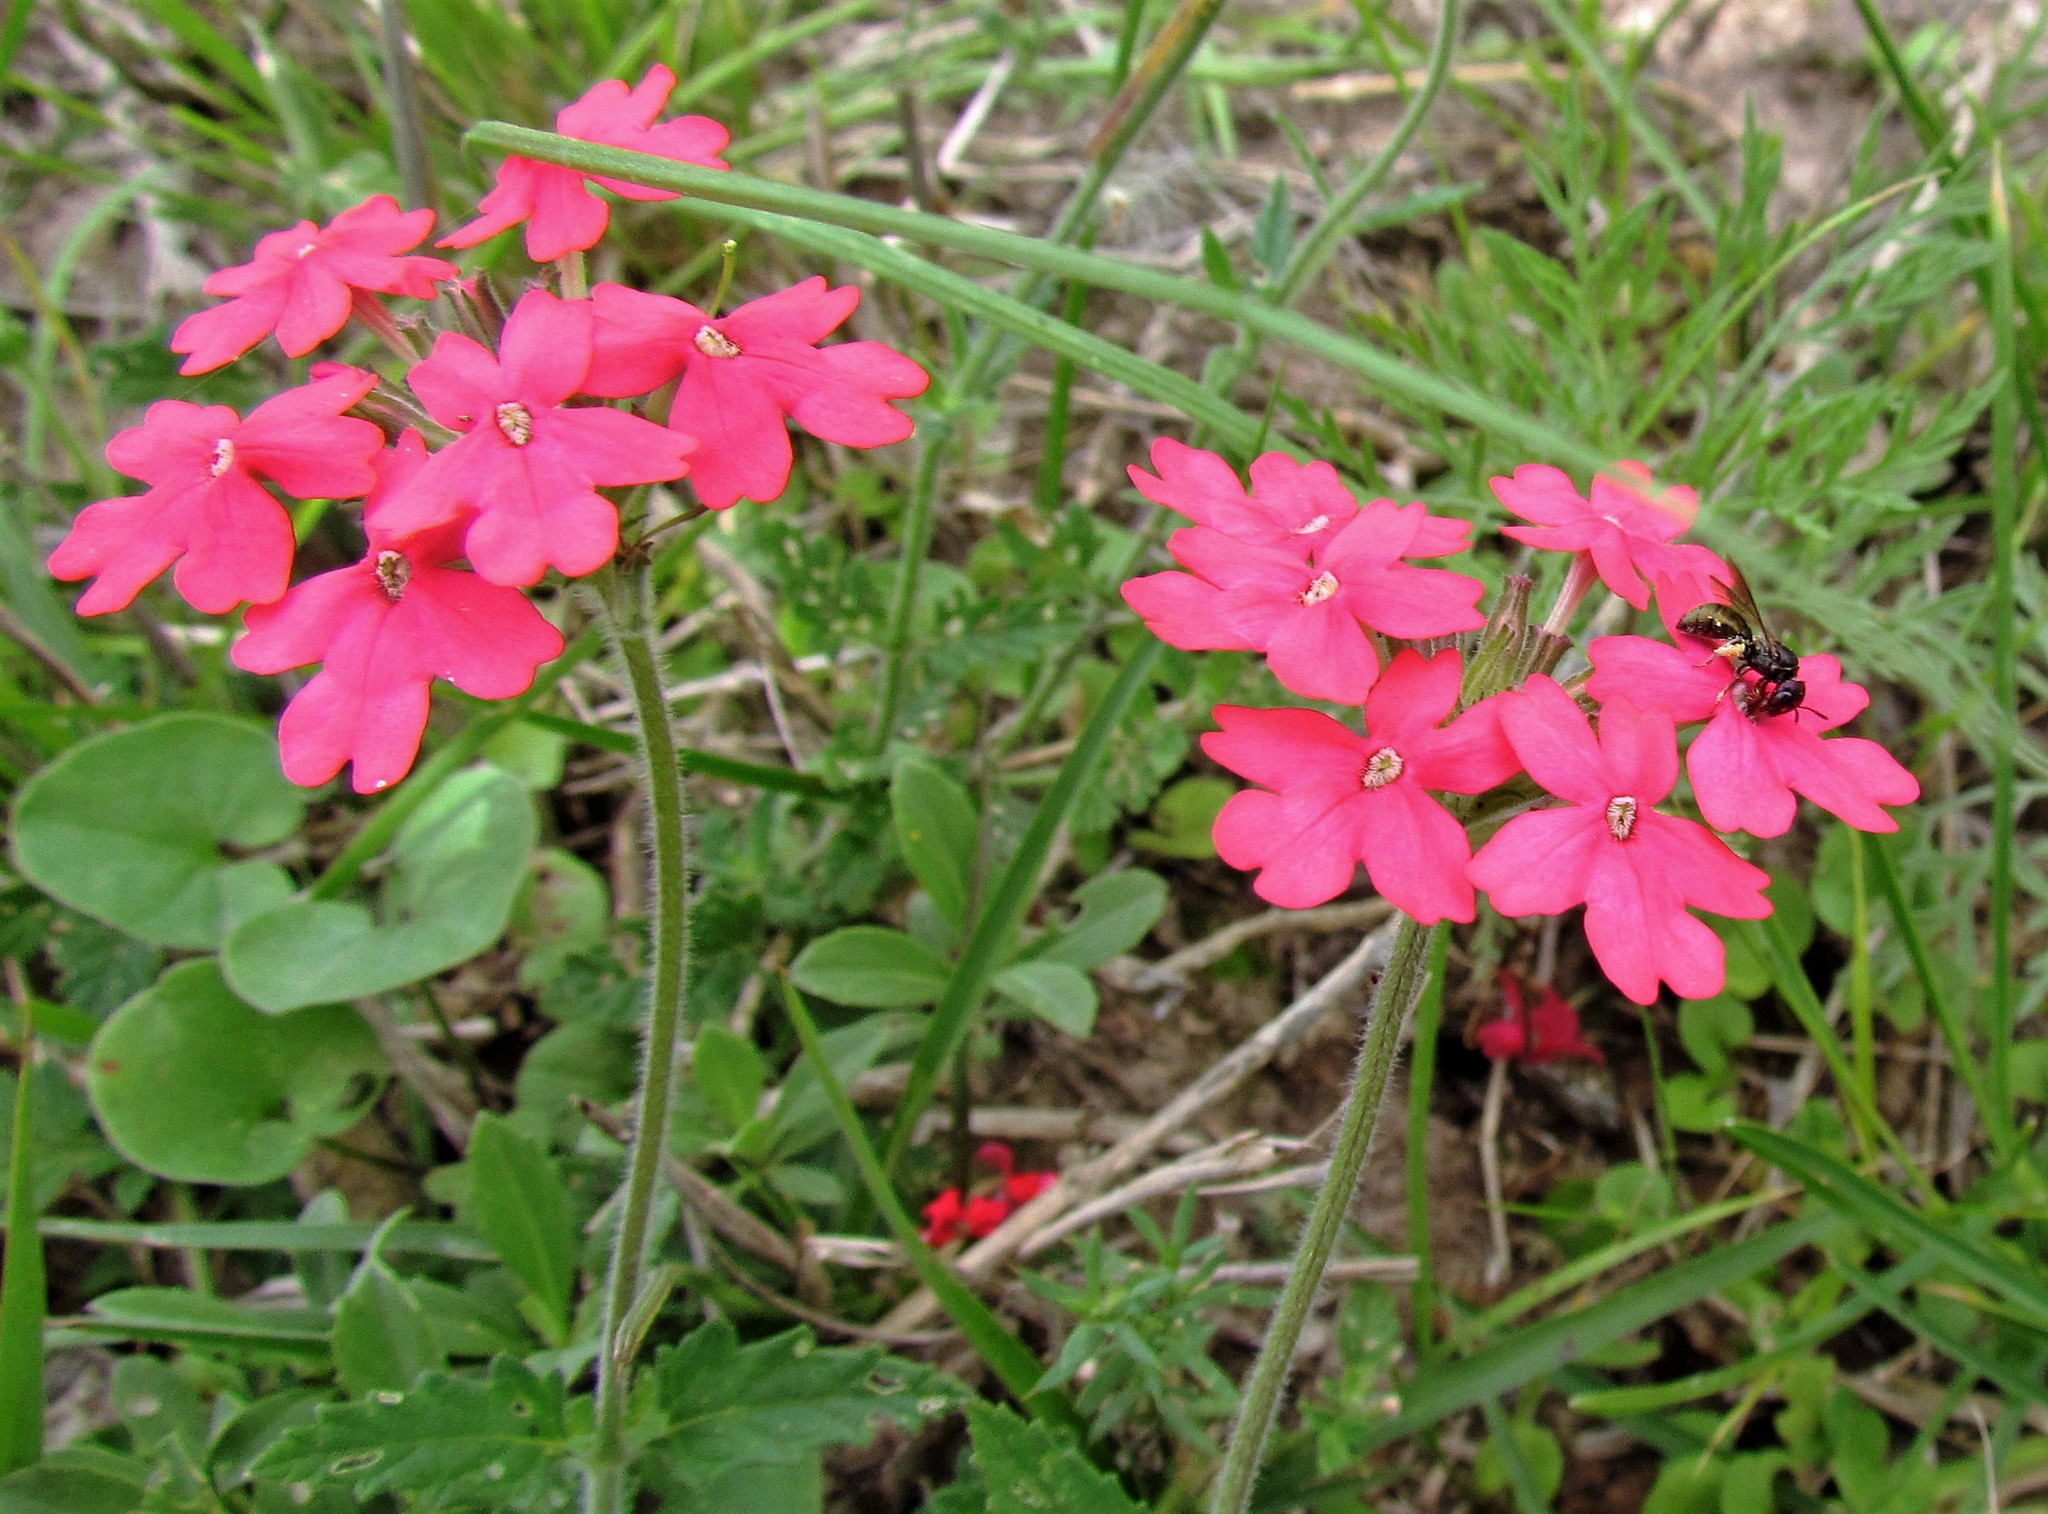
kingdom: Plantae
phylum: Tracheophyta
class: Magnoliopsida
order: Lamiales
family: Verbenaceae
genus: Verbena
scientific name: Verbena tweedieana
